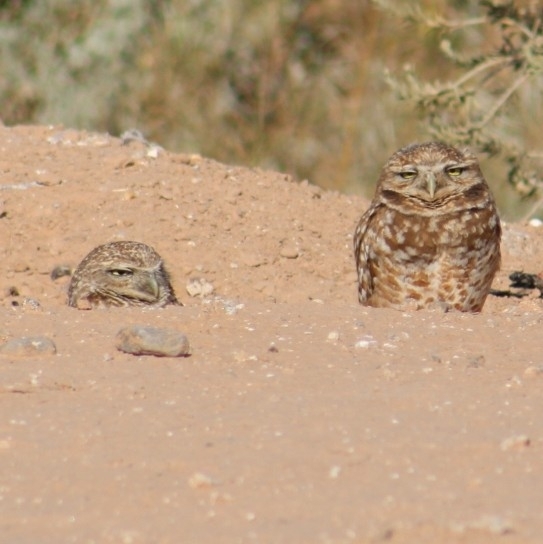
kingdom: Animalia
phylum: Chordata
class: Aves
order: Strigiformes
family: Strigidae
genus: Athene
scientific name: Athene cunicularia
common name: Burrowing owl
